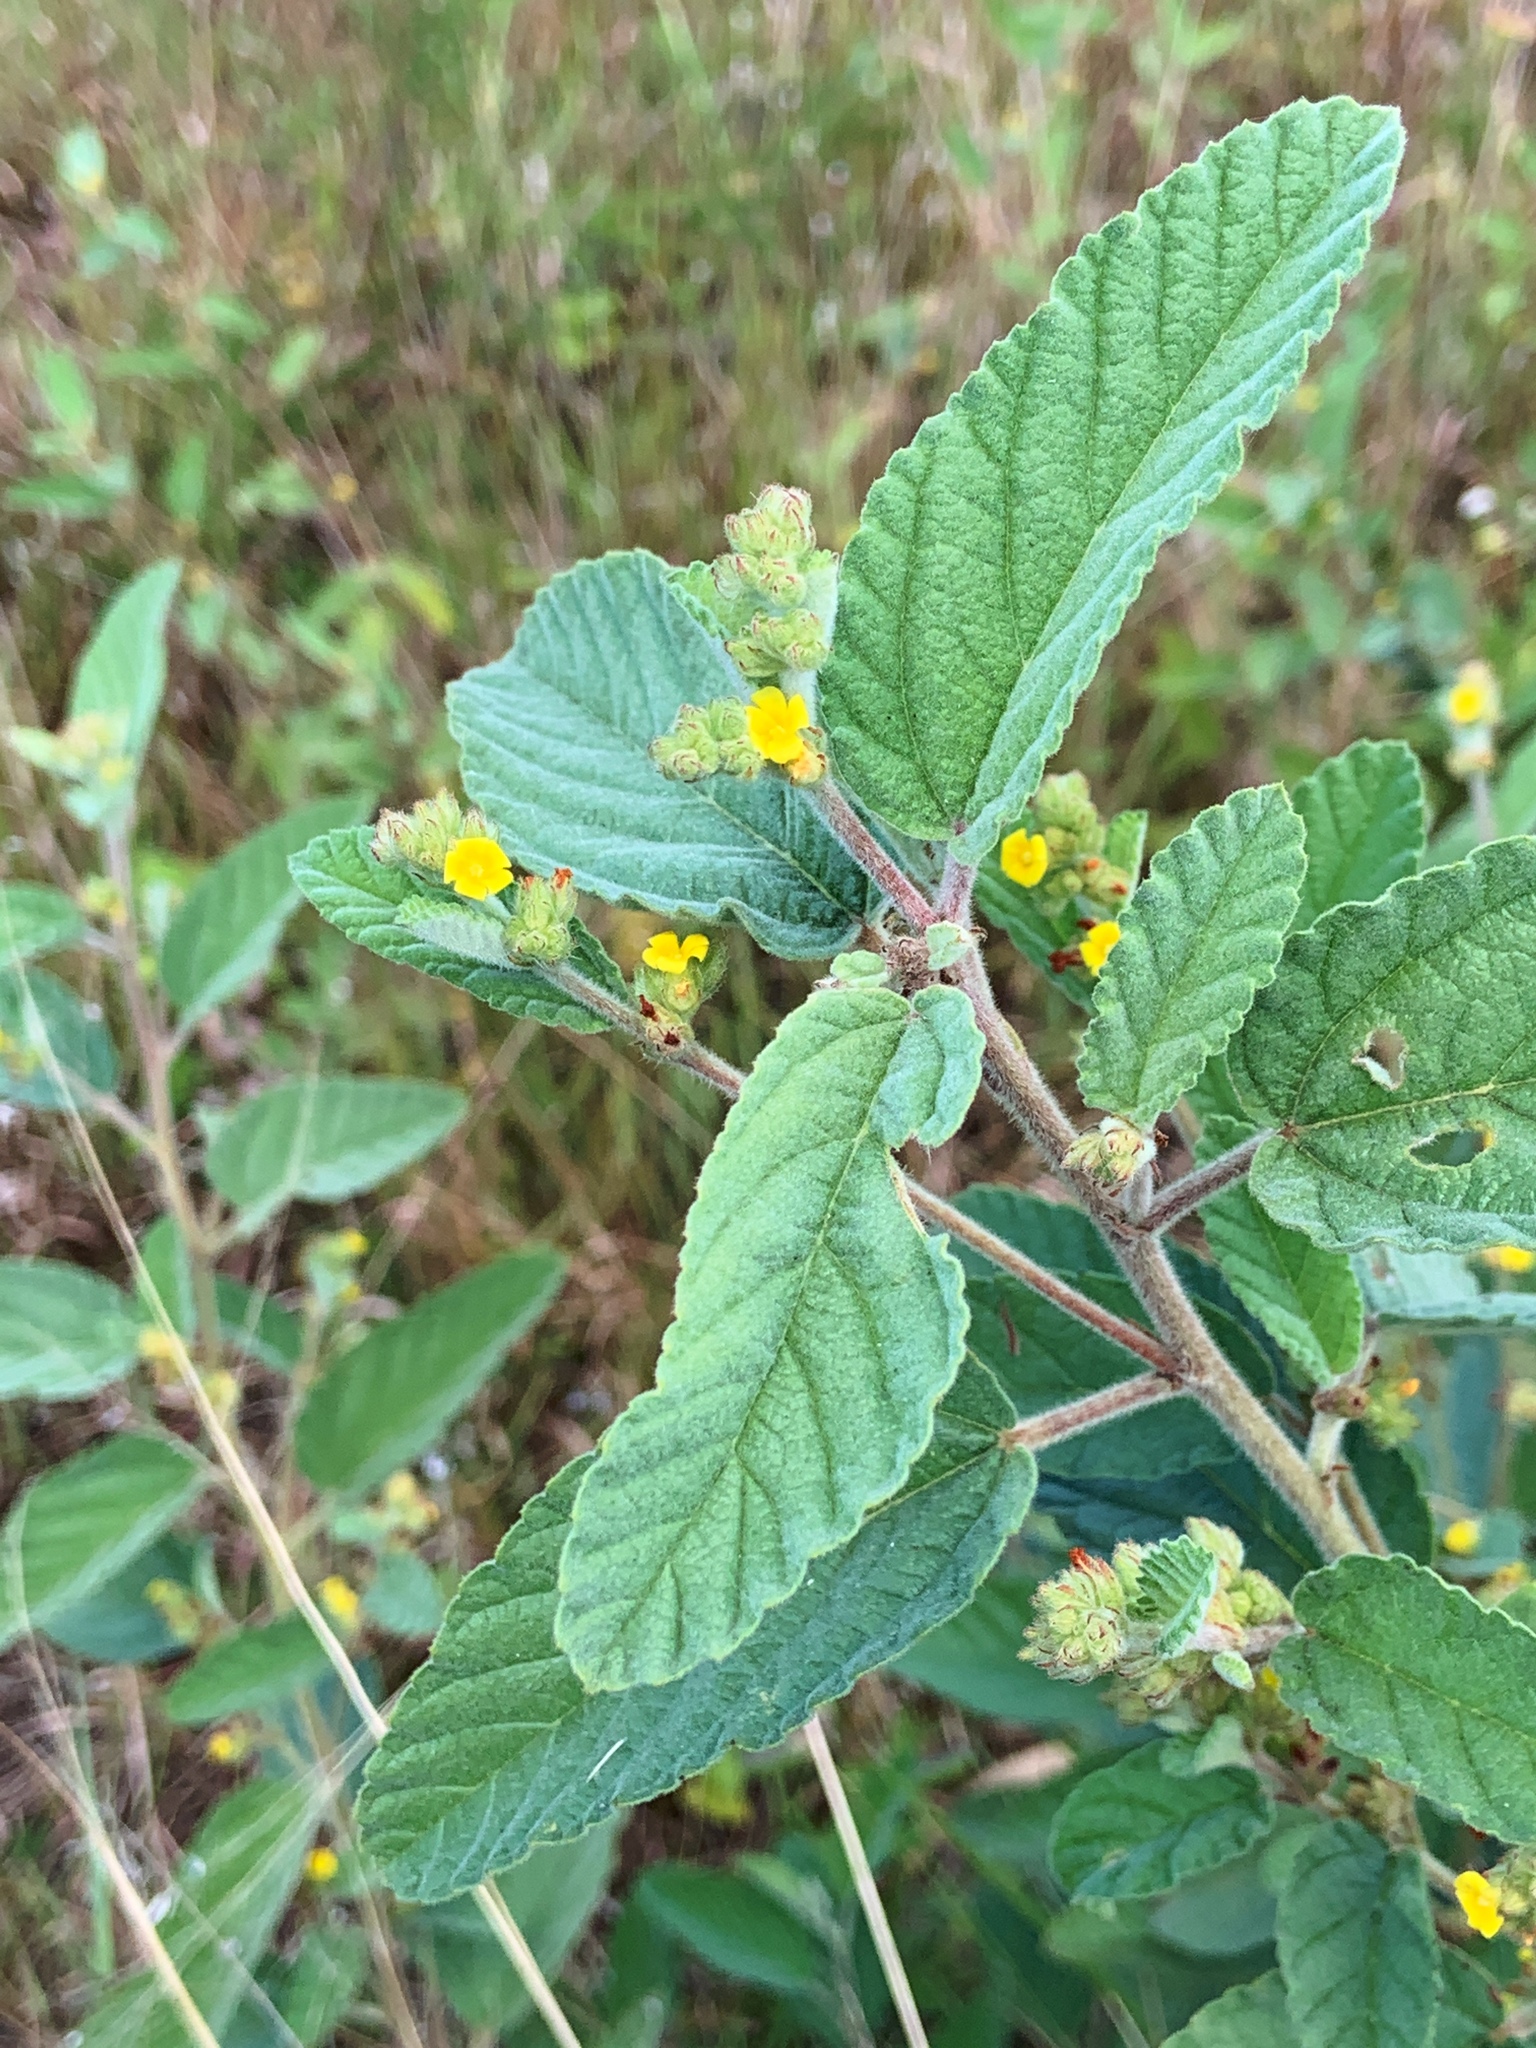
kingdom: Plantae
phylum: Tracheophyta
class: Magnoliopsida
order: Malvales
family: Malvaceae
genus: Waltheria
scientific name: Waltheria indica
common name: Leather-coat
